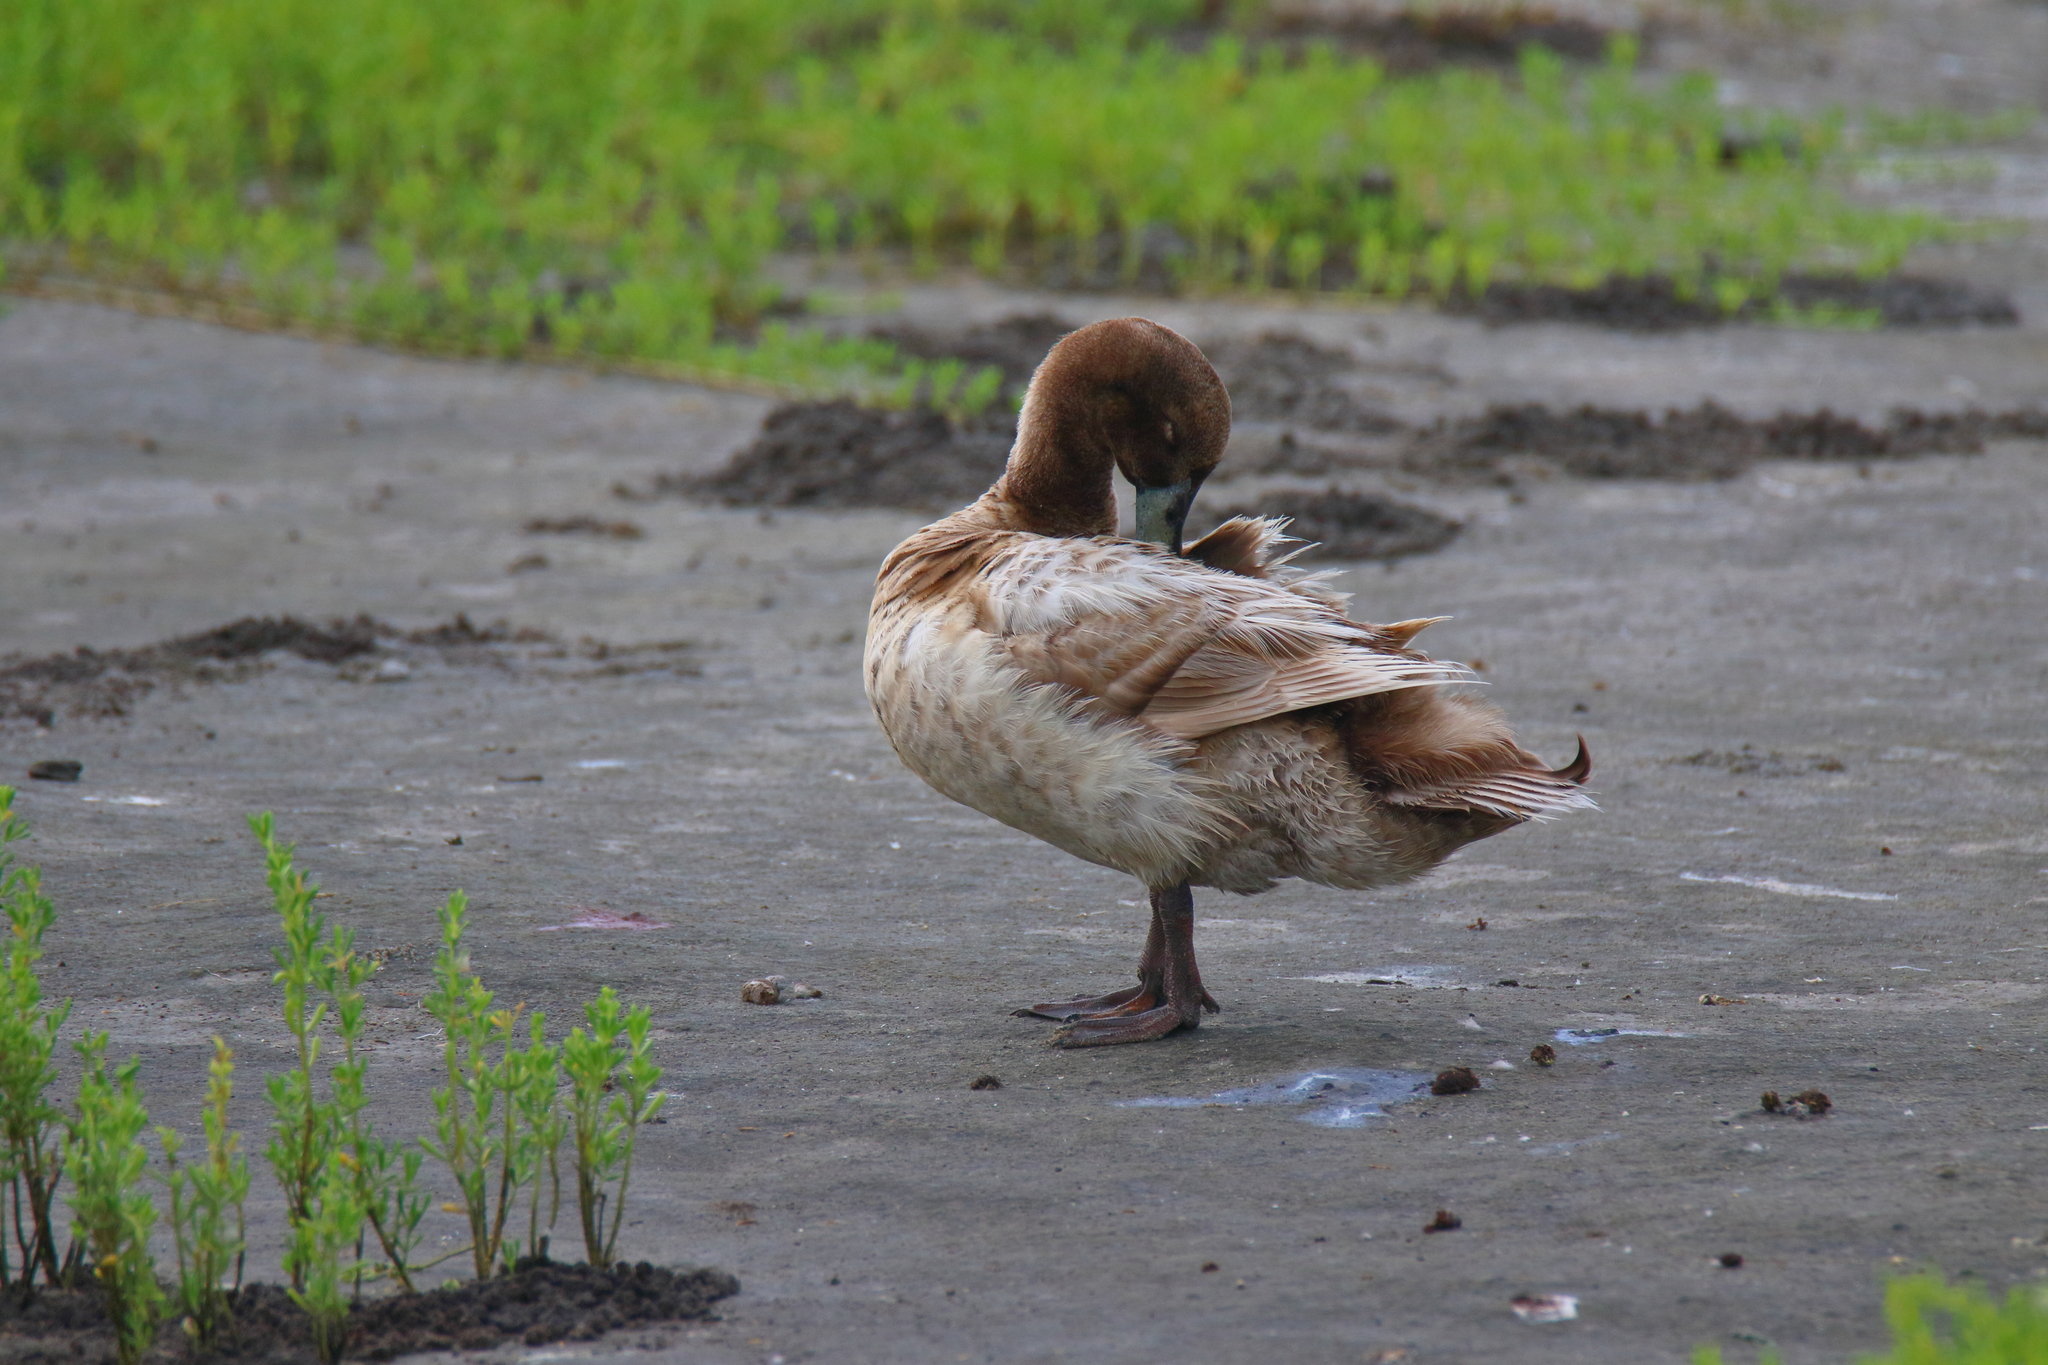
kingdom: Animalia
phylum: Chordata
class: Aves
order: Anseriformes
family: Anatidae
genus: Anas
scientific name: Anas platyrhynchos
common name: Mallard
